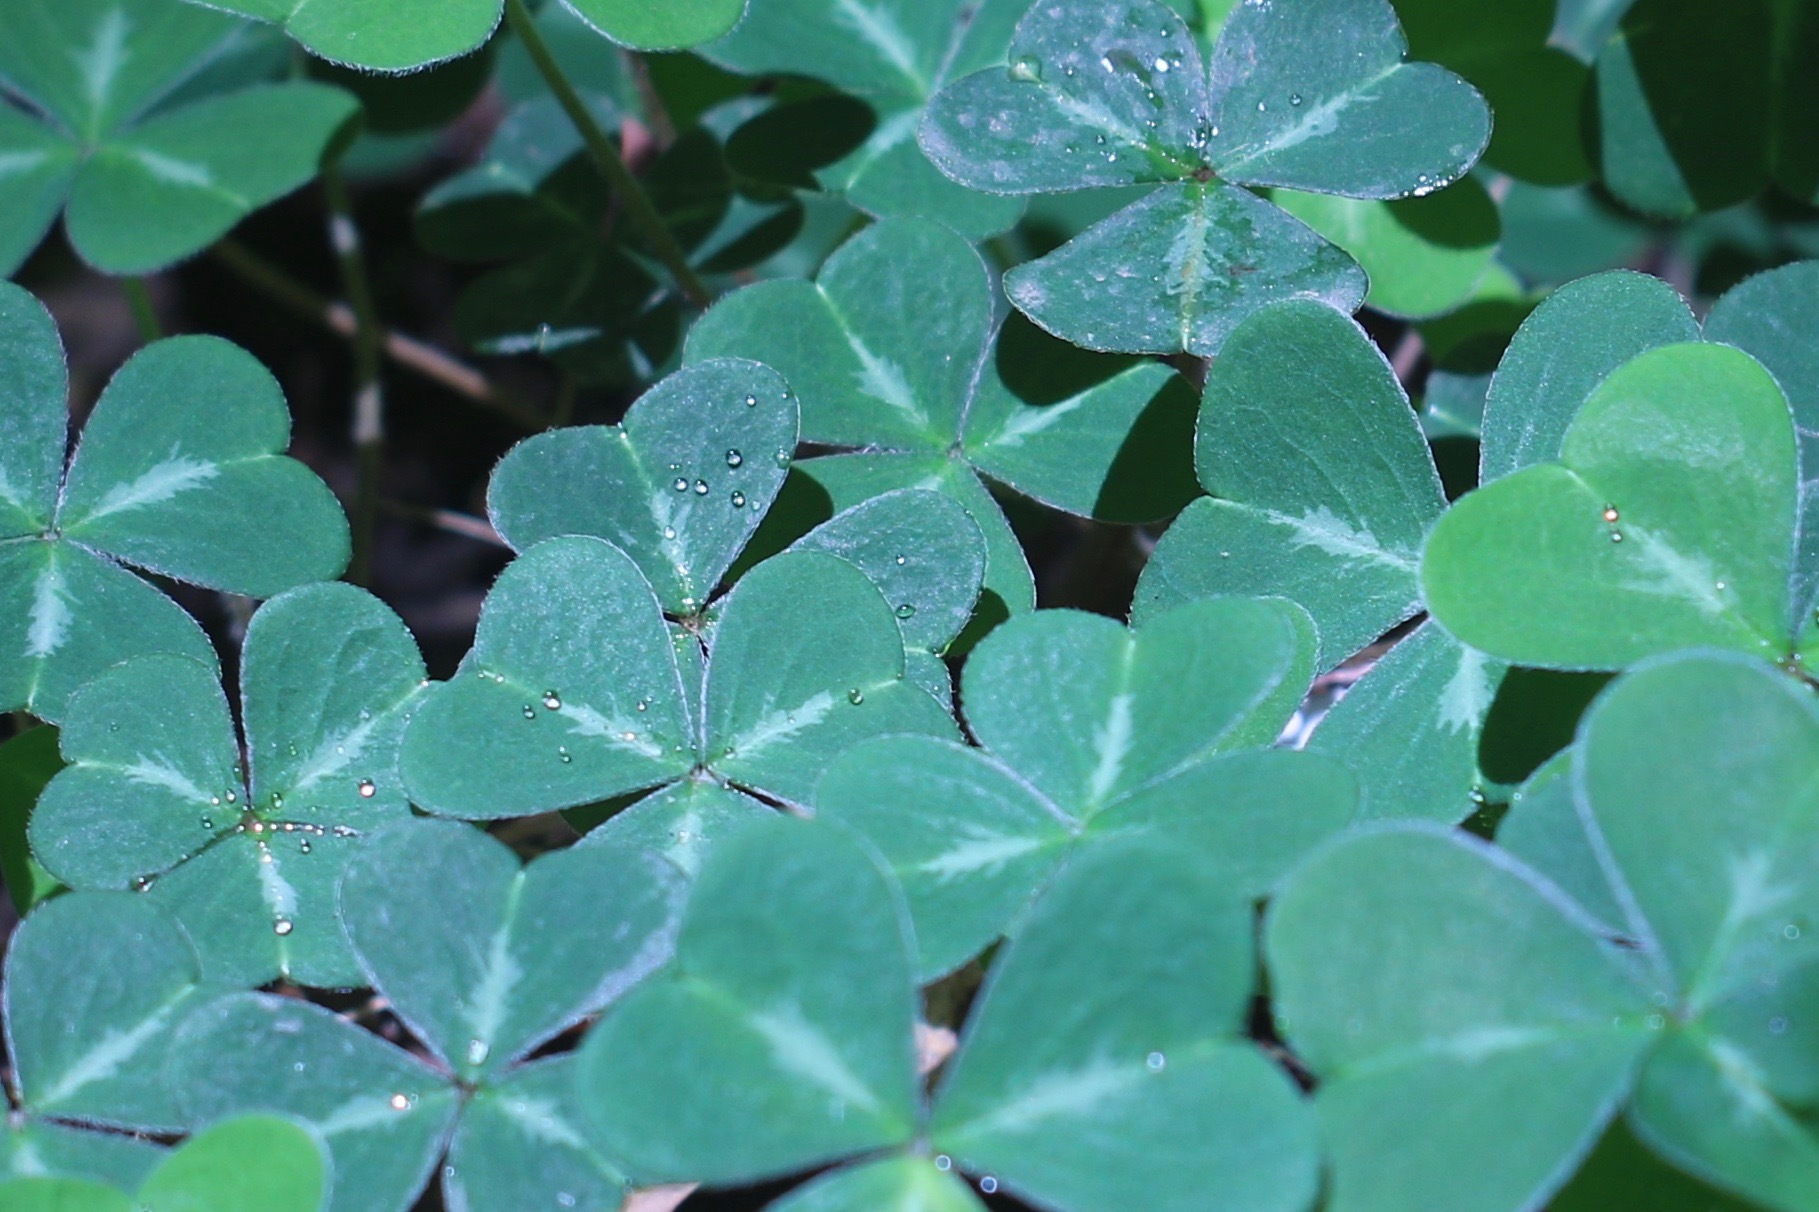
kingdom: Plantae
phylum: Tracheophyta
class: Magnoliopsida
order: Oxalidales
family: Oxalidaceae
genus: Oxalis
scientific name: Oxalis oregana
